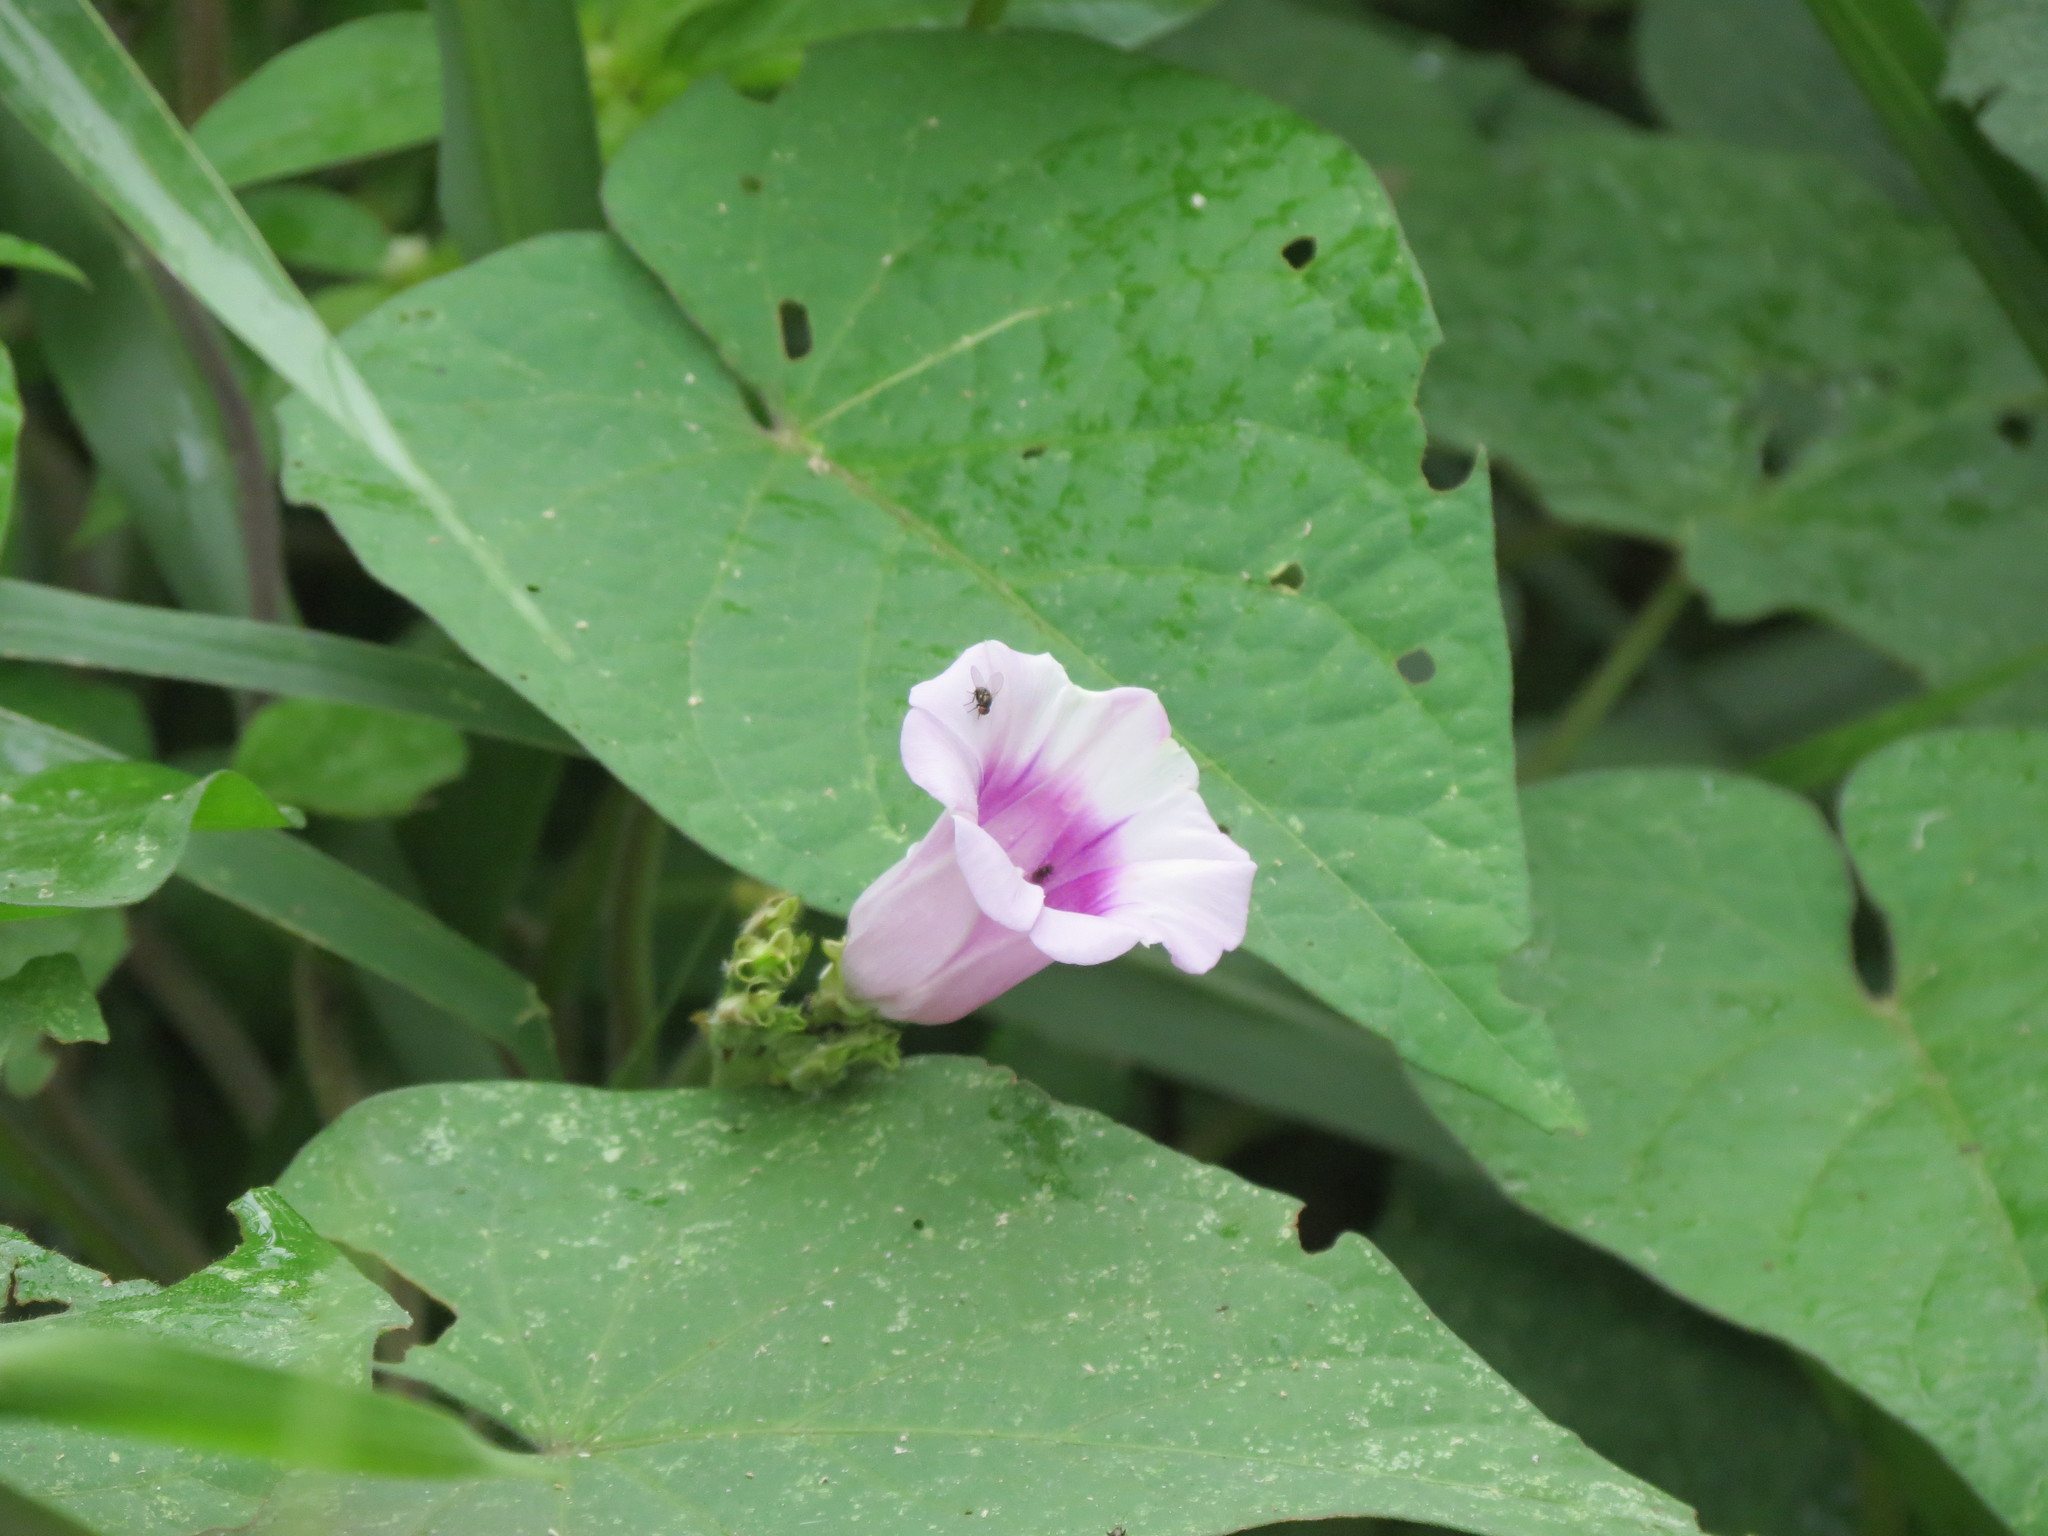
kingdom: Plantae
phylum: Tracheophyta
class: Magnoliopsida
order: Solanales
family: Convolvulaceae
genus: Ipomoea
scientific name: Ipomoea batatas
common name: Sweet-potato
